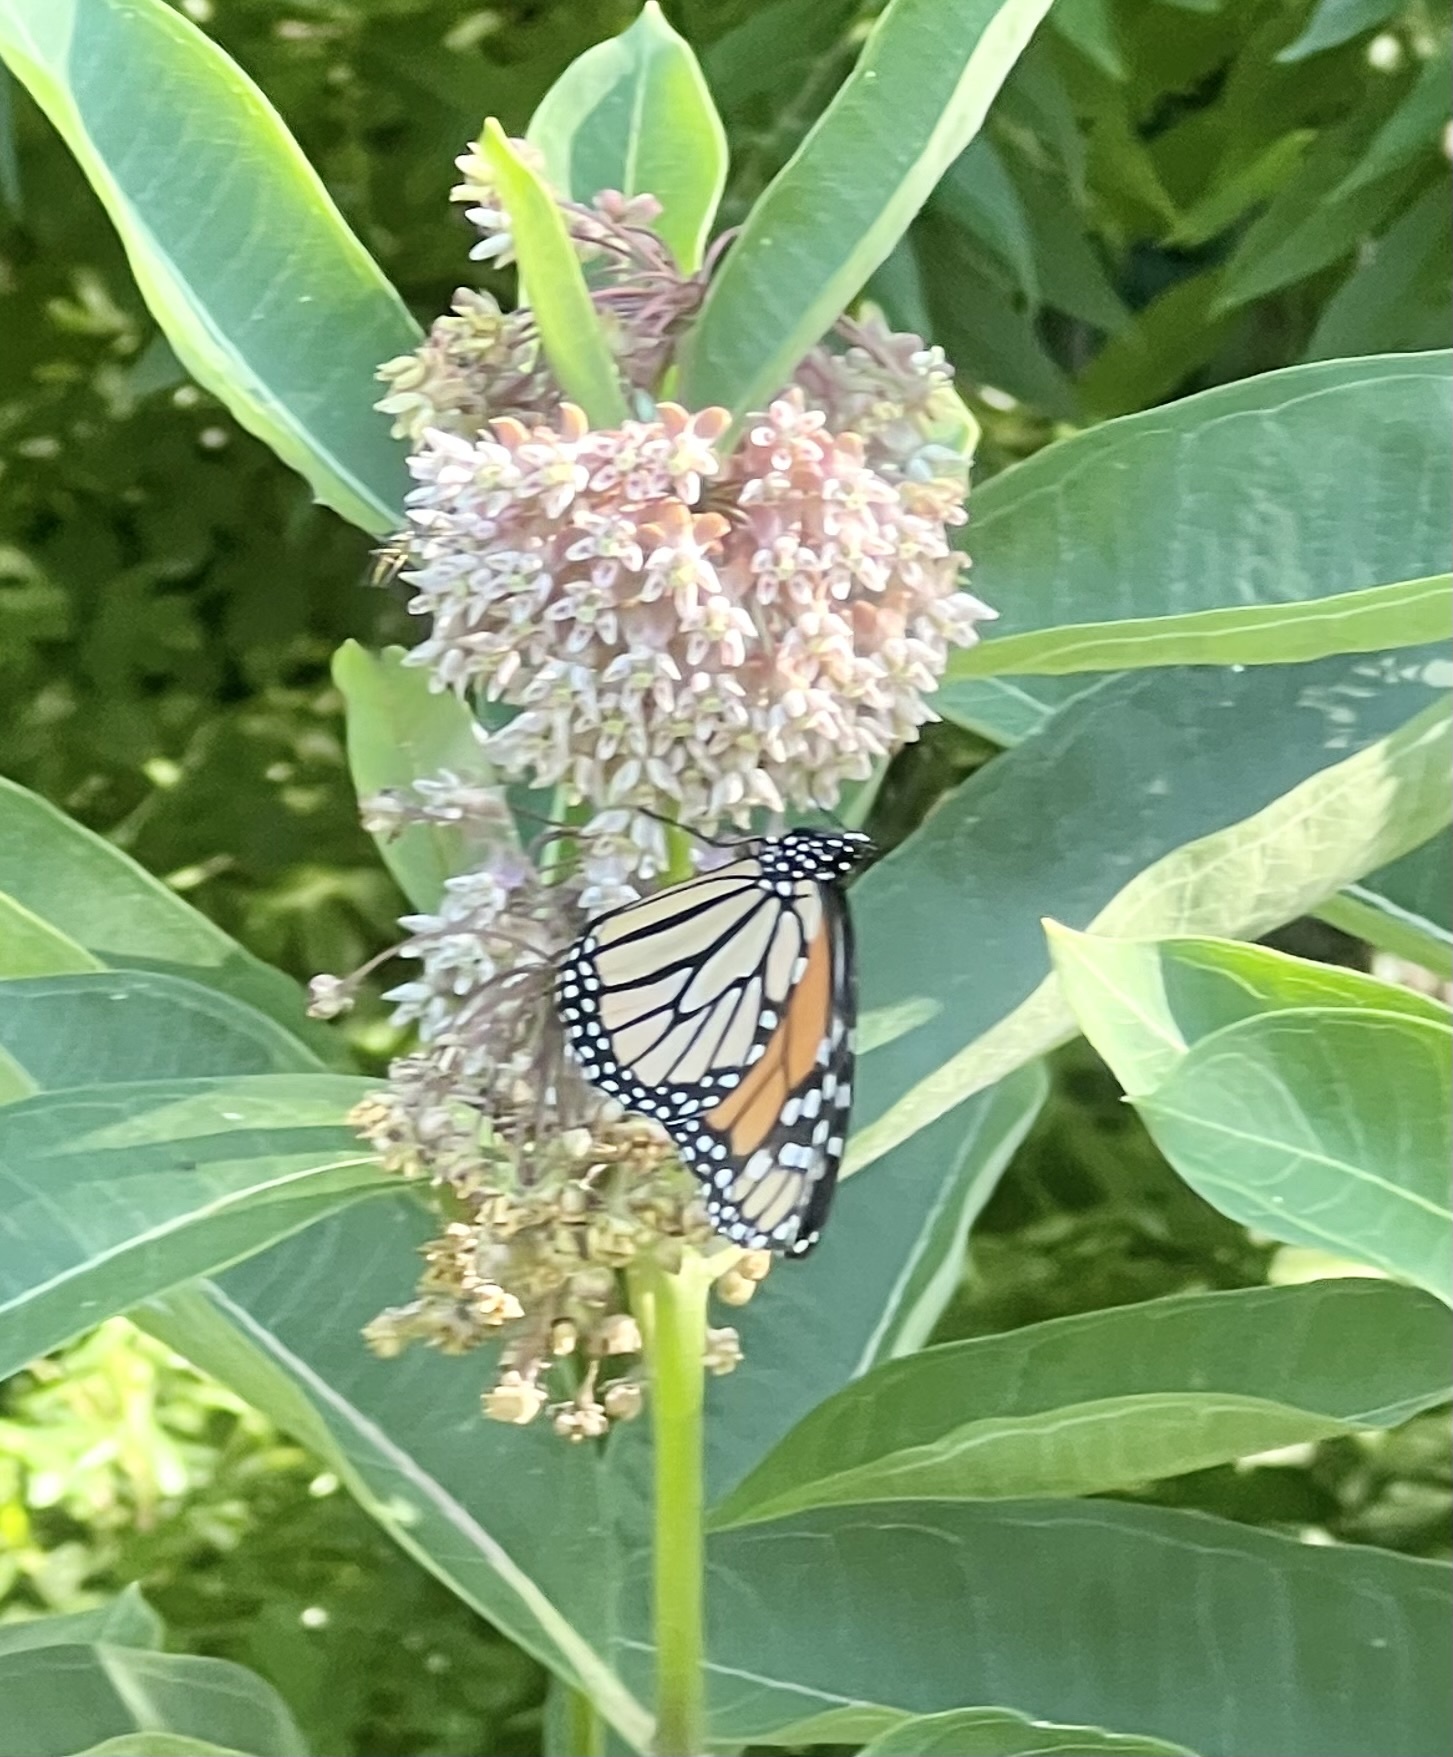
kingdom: Animalia
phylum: Arthropoda
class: Insecta
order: Lepidoptera
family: Nymphalidae
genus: Danaus
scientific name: Danaus plexippus
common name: Monarch
